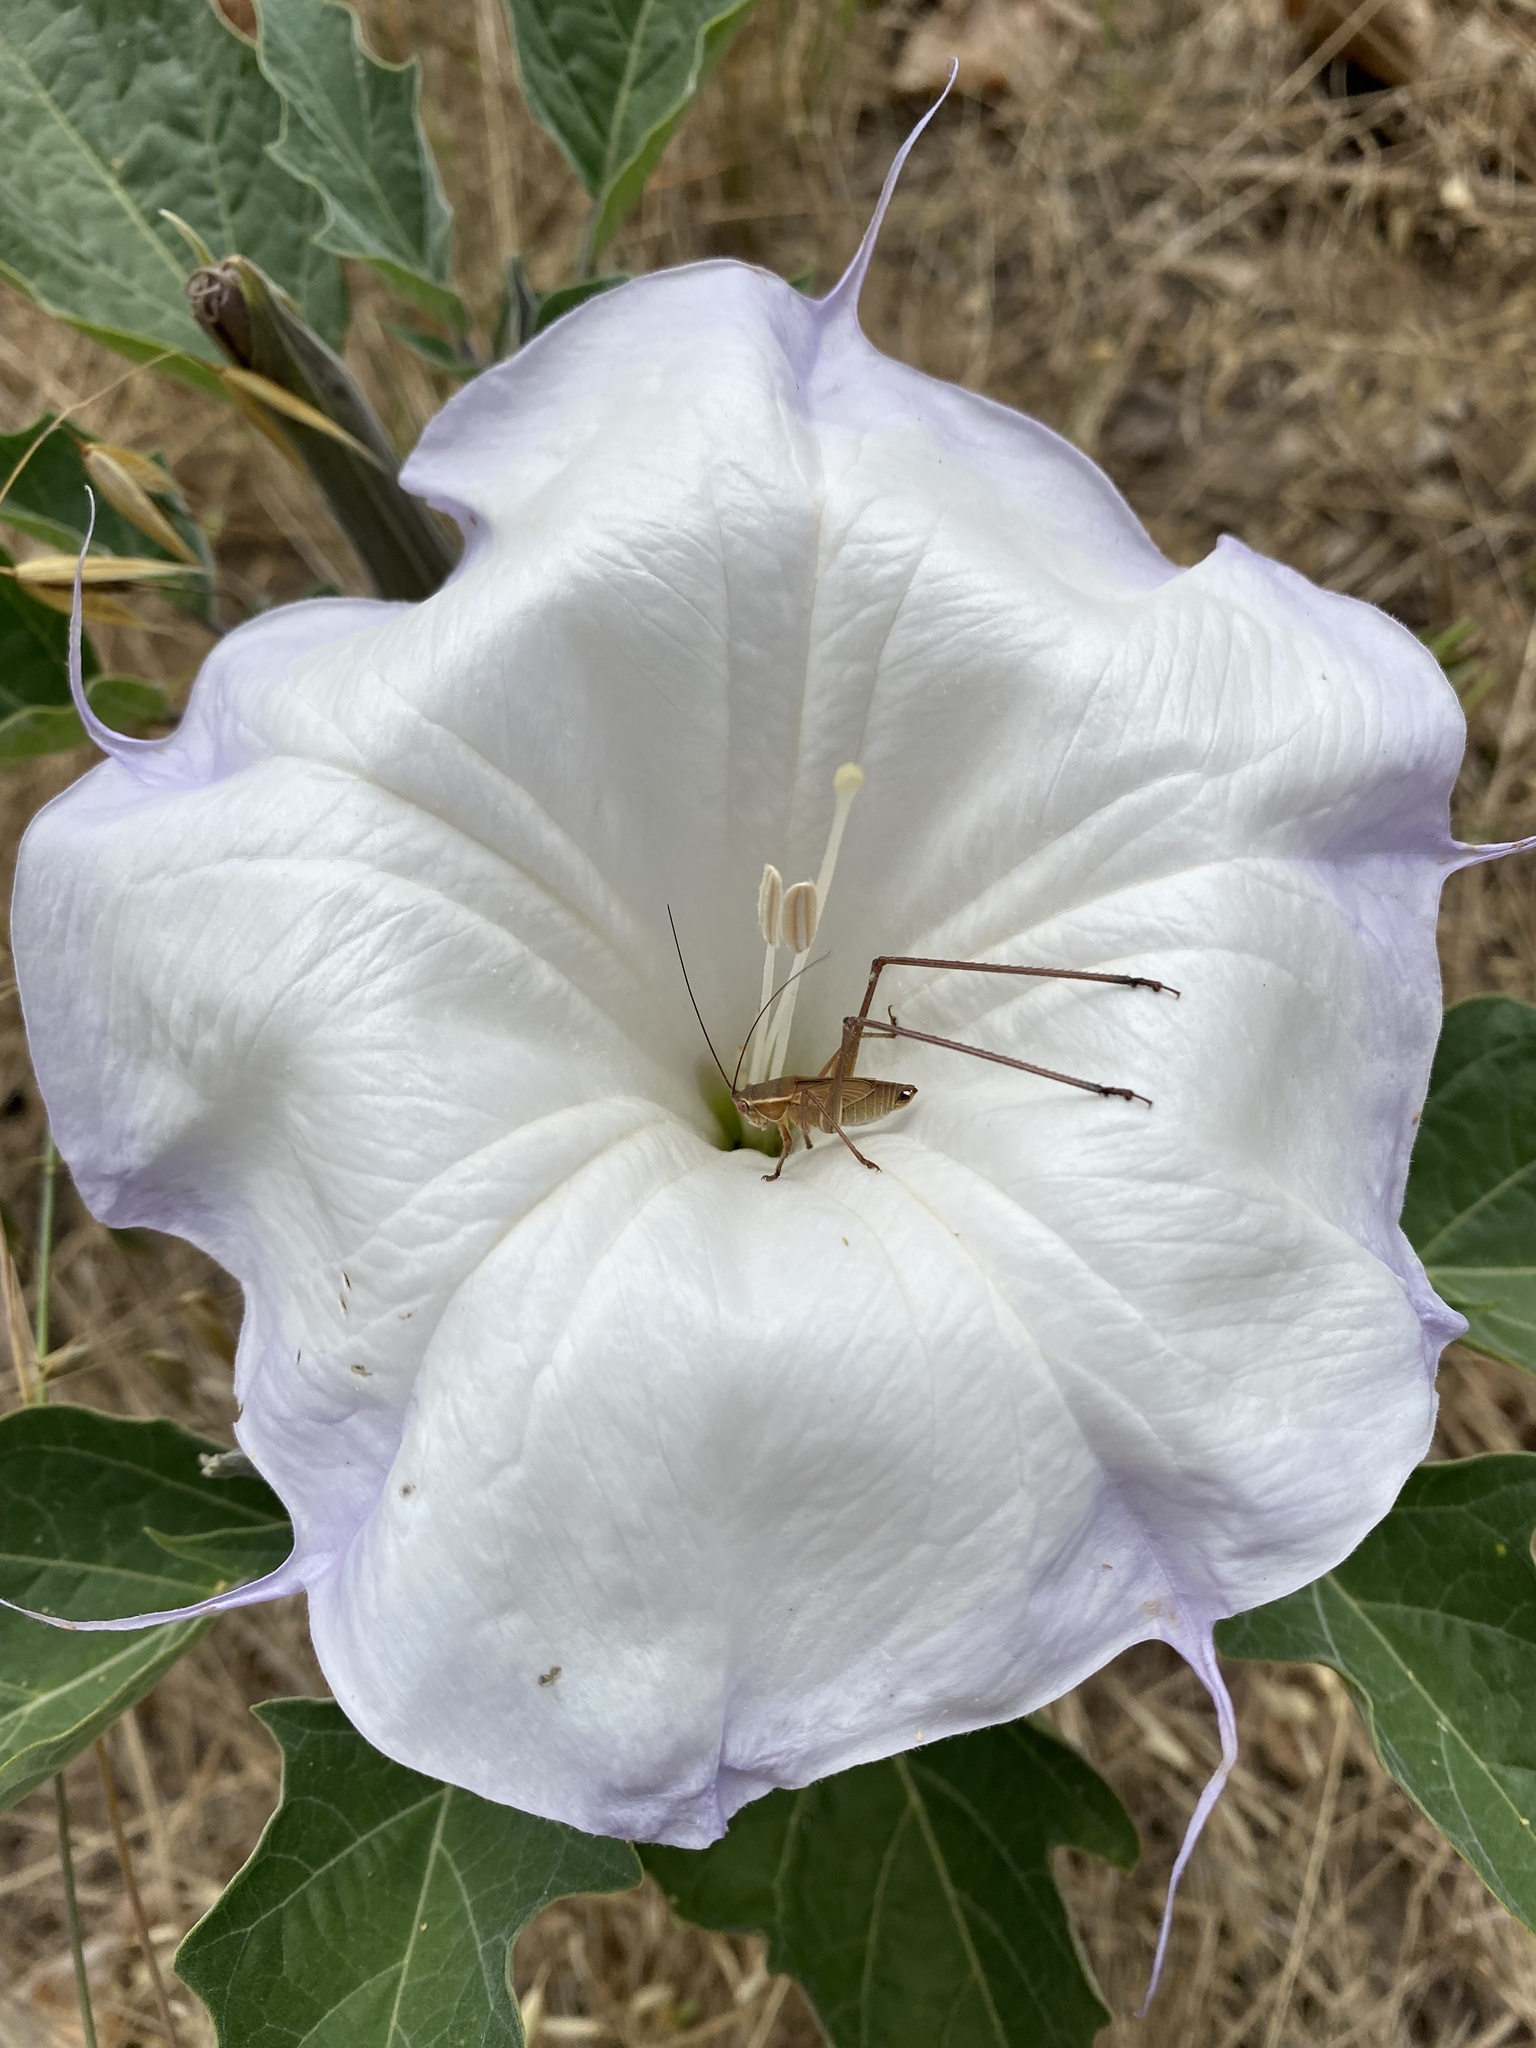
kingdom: Animalia
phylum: Arthropoda
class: Insecta
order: Orthoptera
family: Tettigoniidae
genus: Scudderia
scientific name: Scudderia
